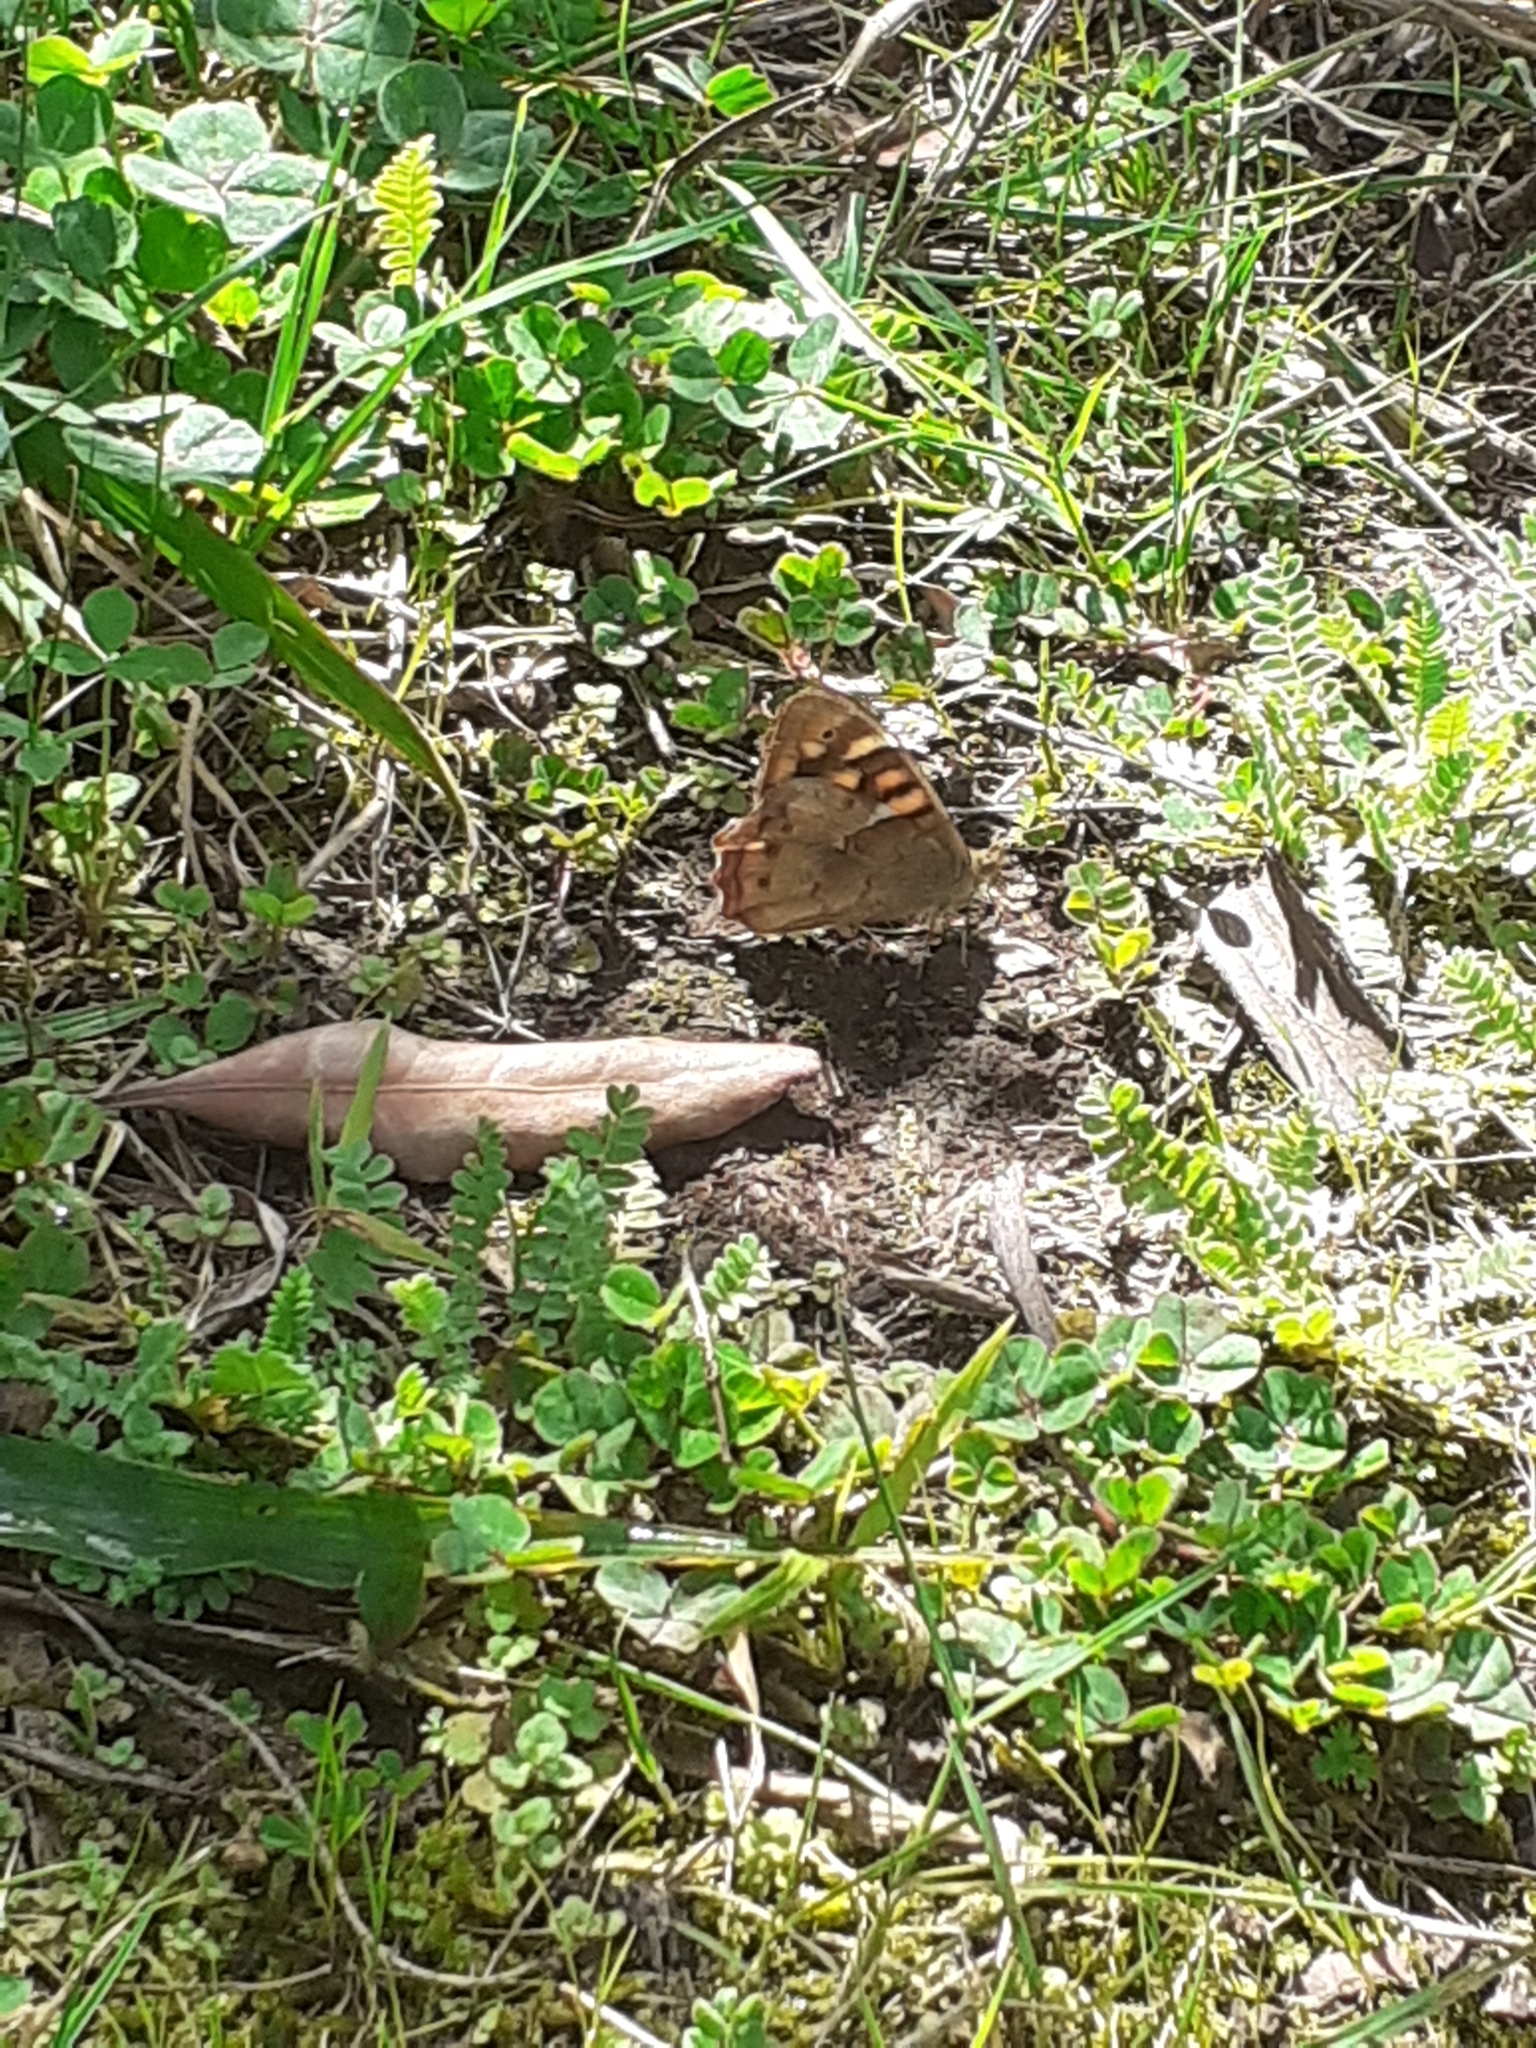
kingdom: Animalia
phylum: Arthropoda
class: Insecta
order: Lepidoptera
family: Nymphalidae
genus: Pararge
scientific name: Pararge aegeria
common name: Speckled wood
